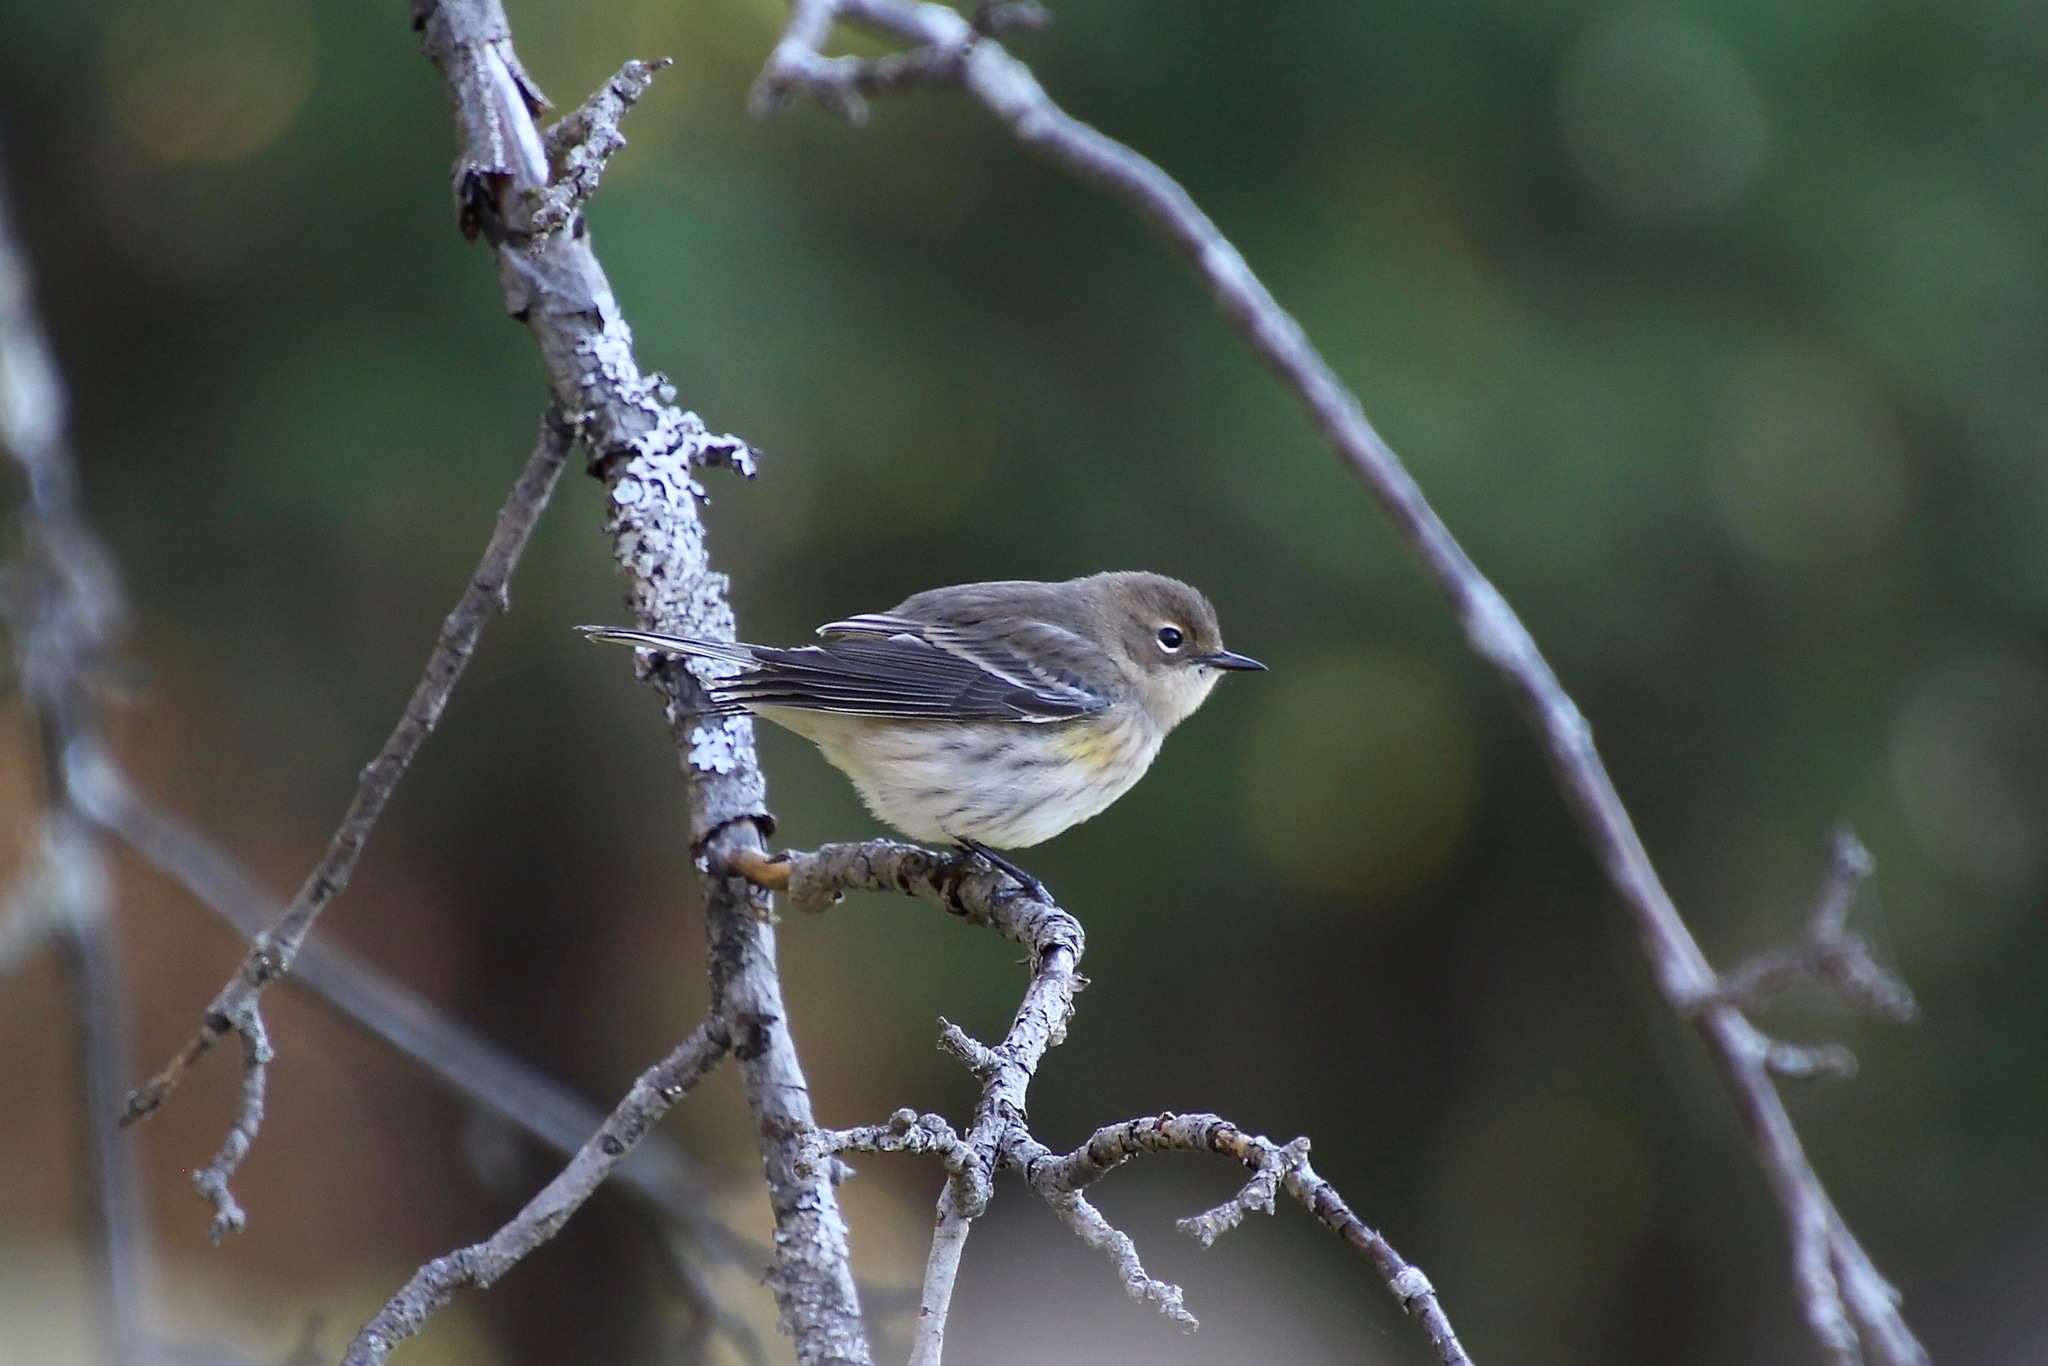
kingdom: Animalia
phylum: Chordata
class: Aves
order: Passeriformes
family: Parulidae
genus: Setophaga
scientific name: Setophaga coronata
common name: Myrtle warbler
